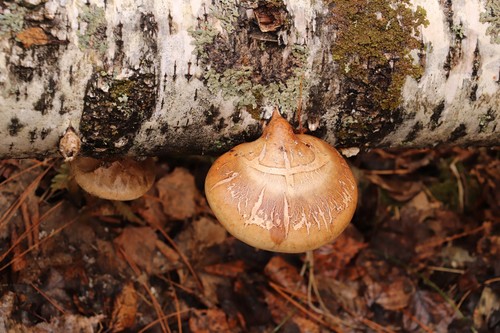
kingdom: Fungi
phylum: Basidiomycota
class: Agaricomycetes
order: Polyporales
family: Fomitopsidaceae
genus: Fomitopsis
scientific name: Fomitopsis betulina
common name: Birch polypore
